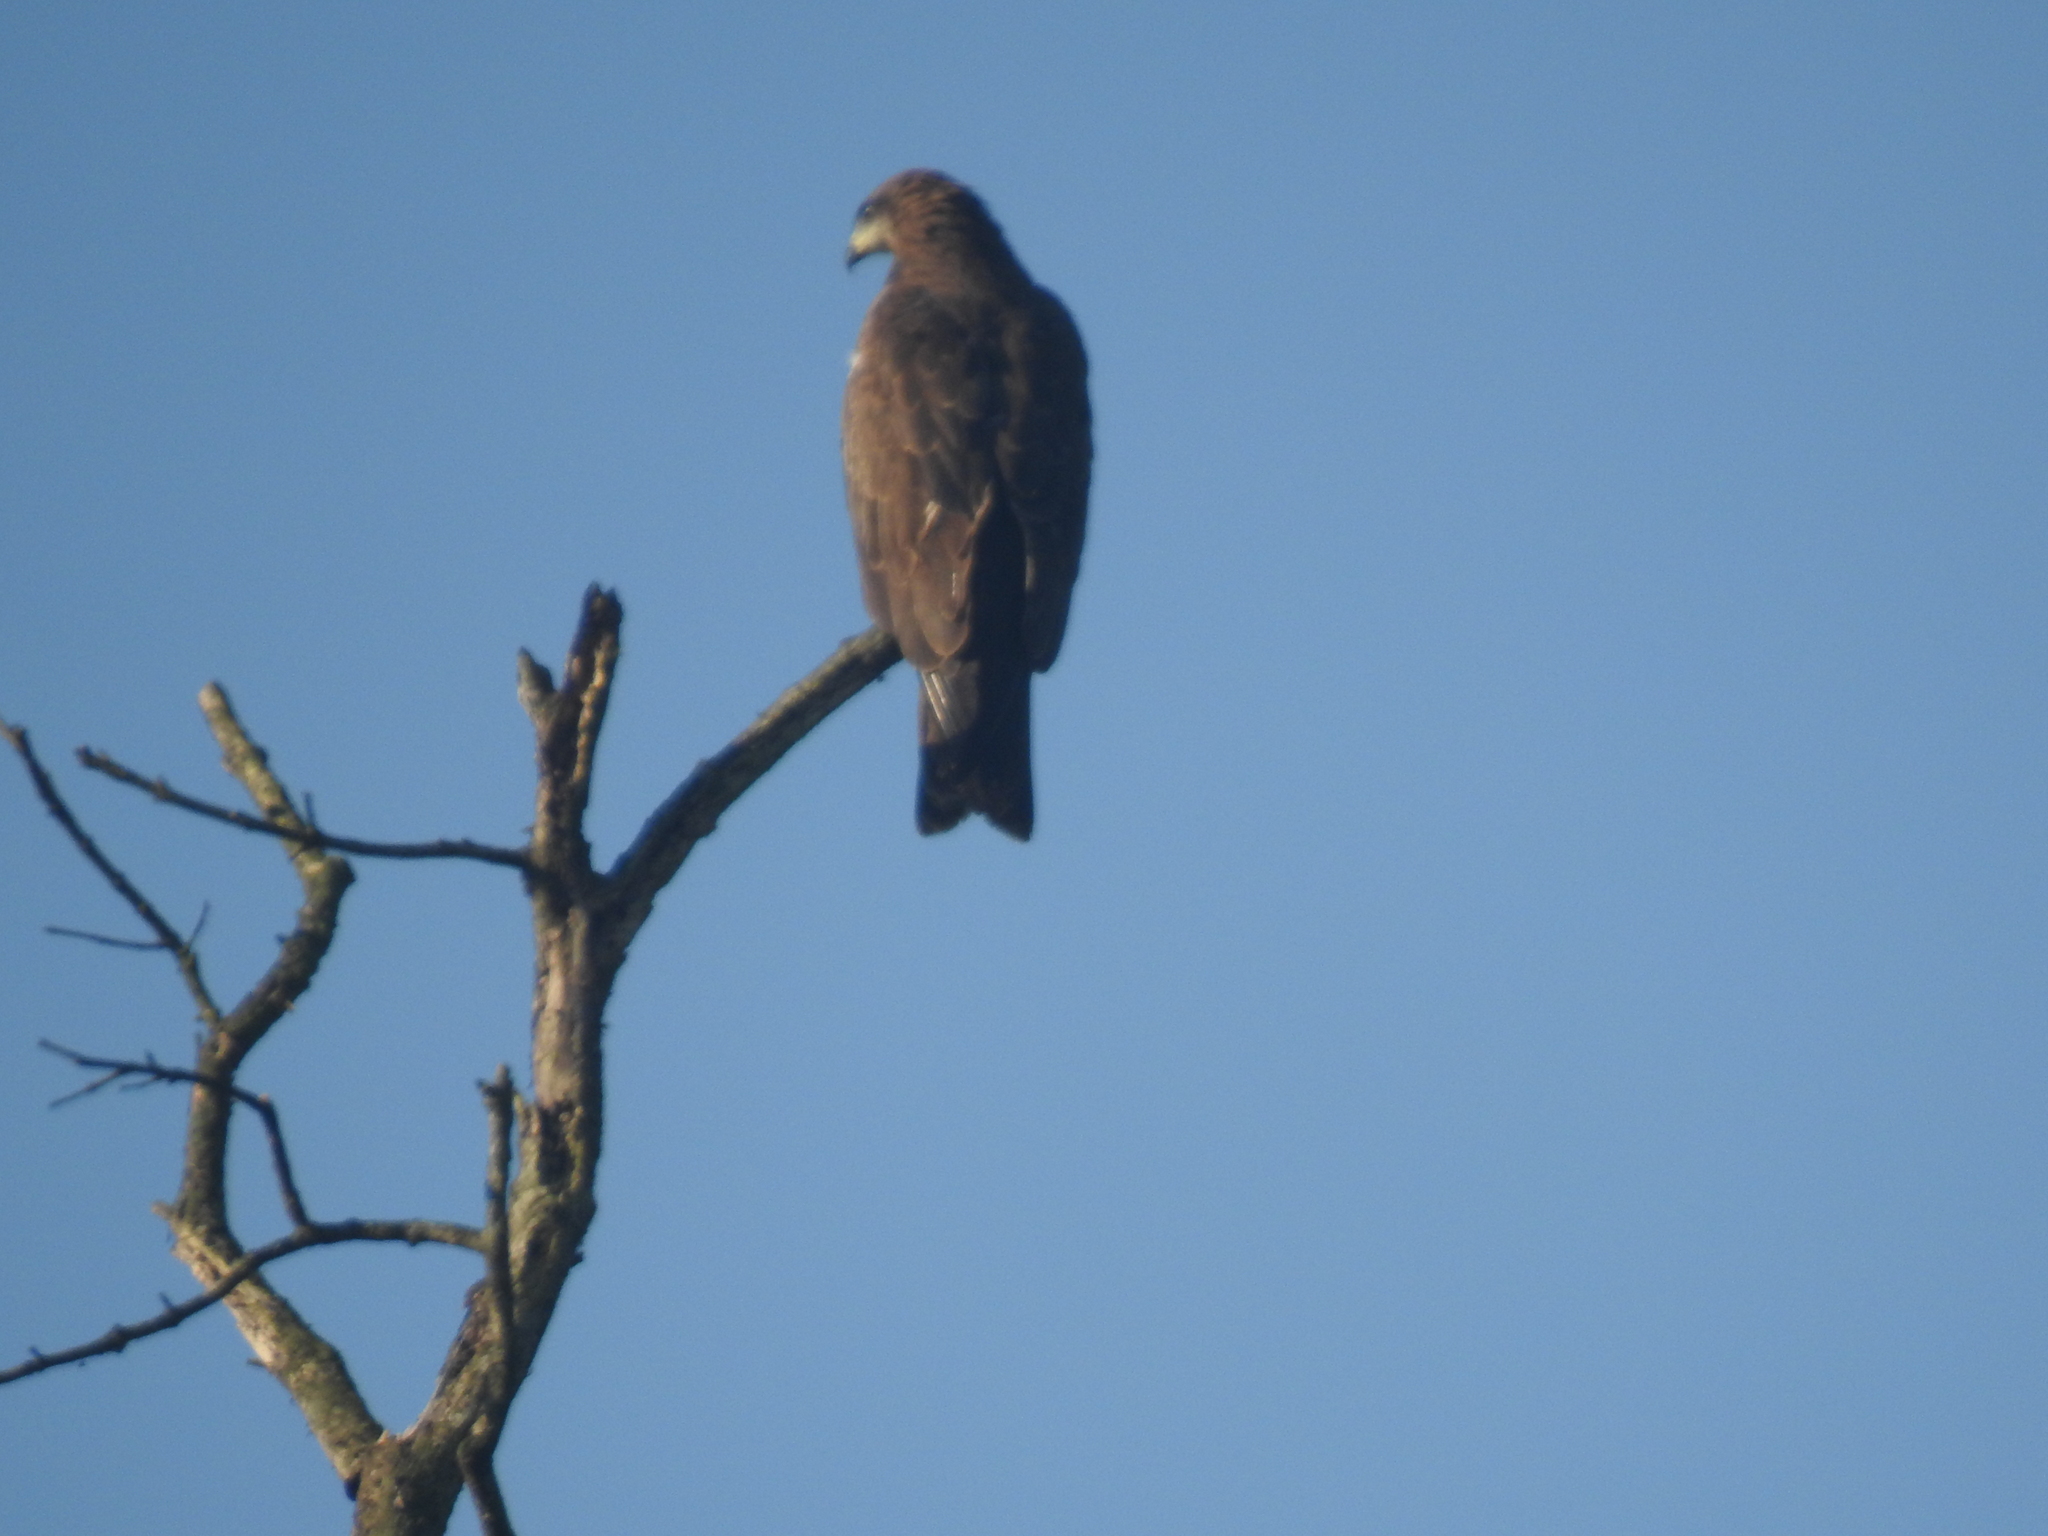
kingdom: Animalia
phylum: Chordata
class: Aves
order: Accipitriformes
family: Accipitridae
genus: Milvus
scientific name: Milvus migrans
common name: Black kite
